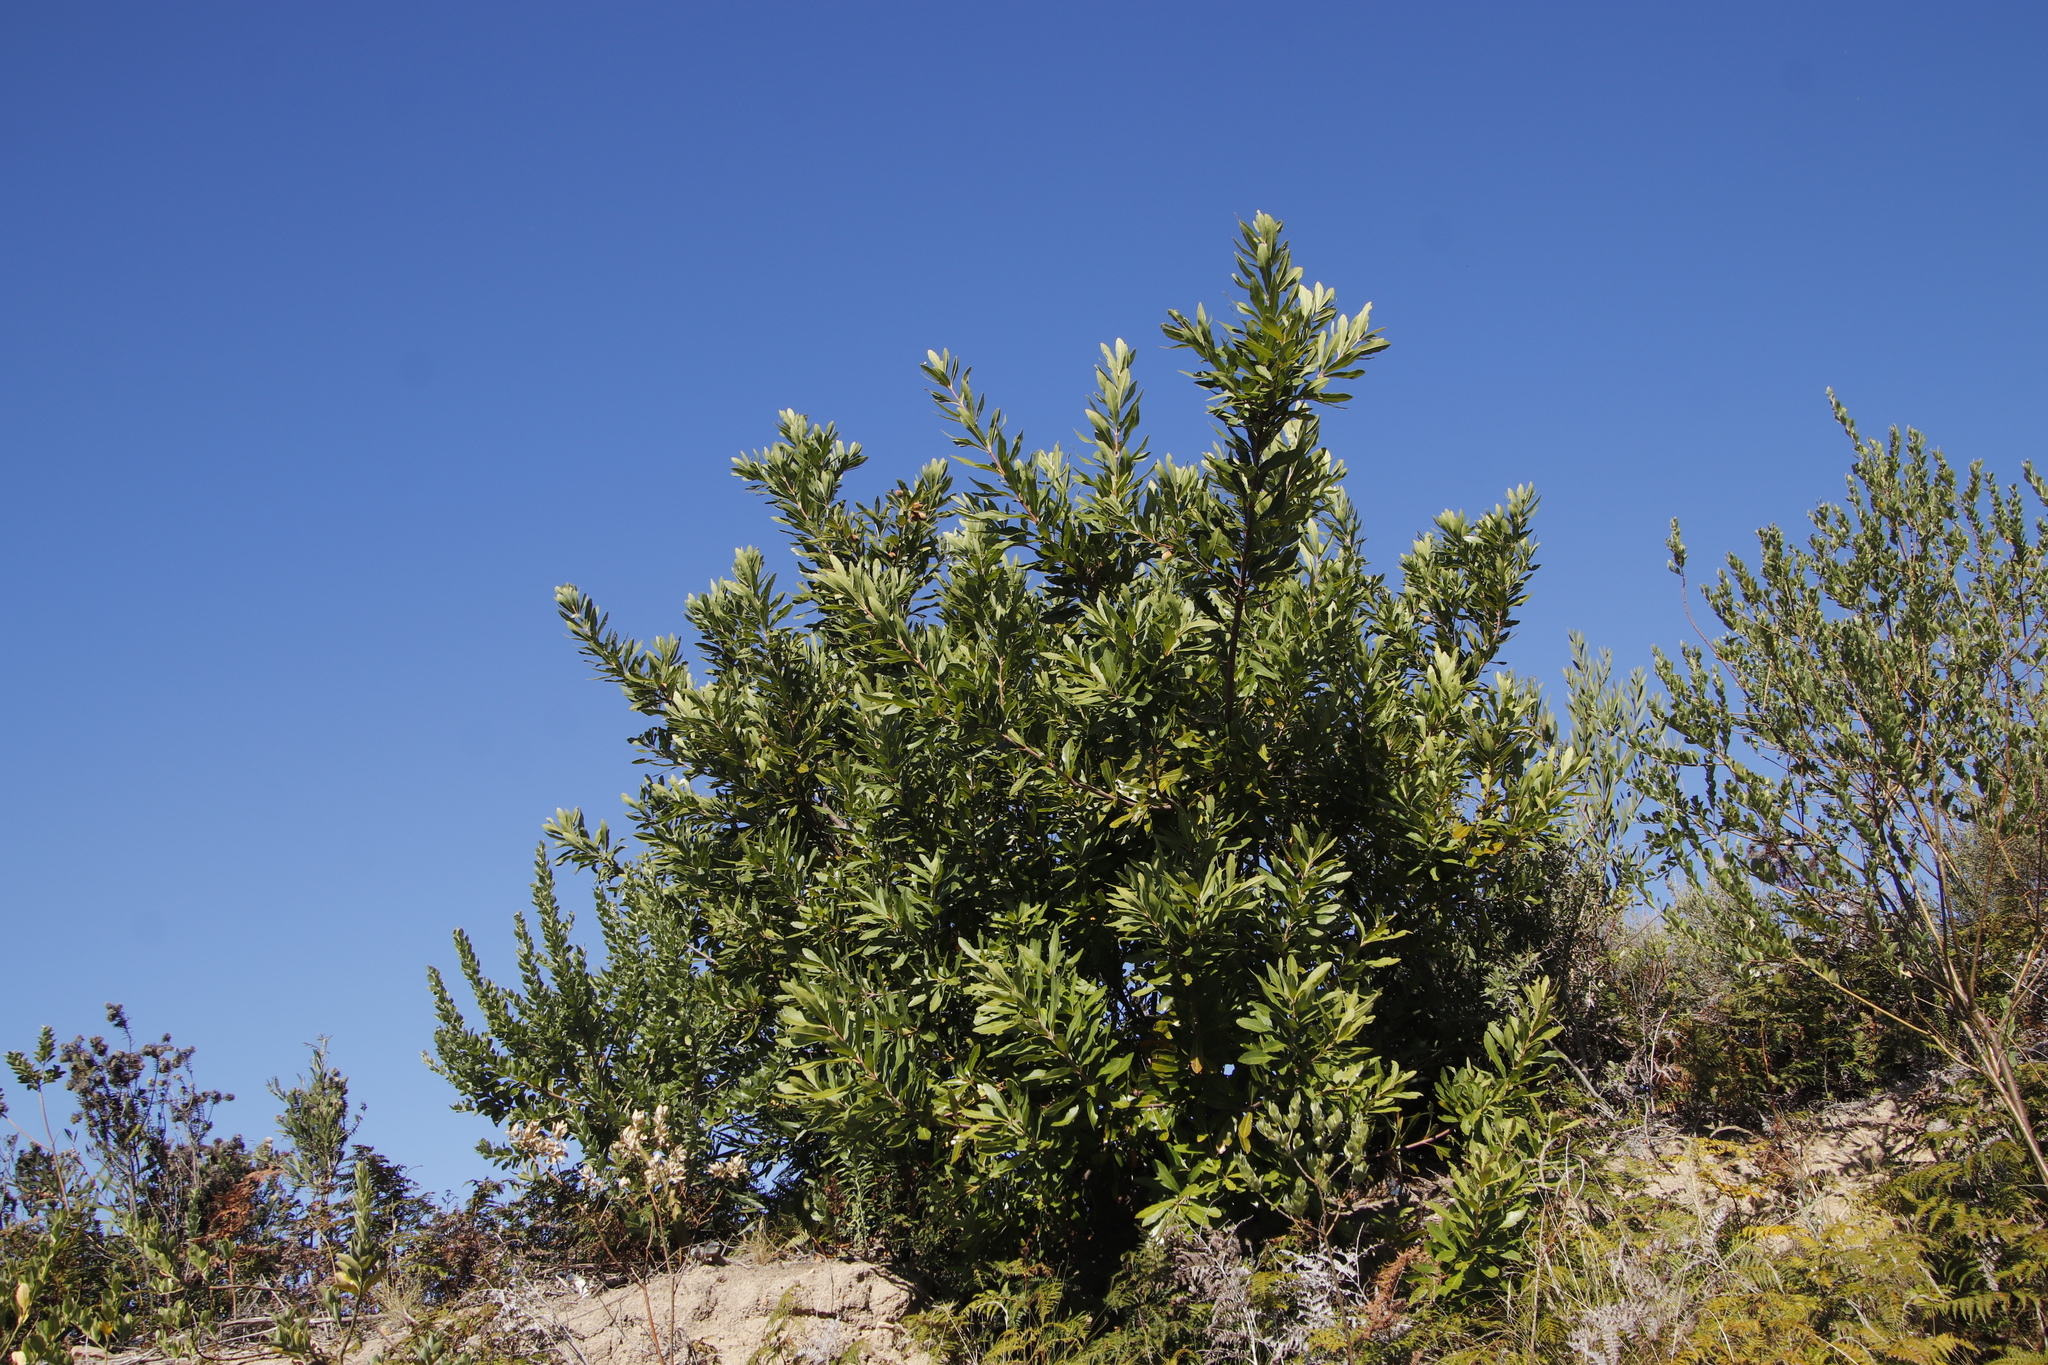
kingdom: Plantae
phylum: Tracheophyta
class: Magnoliopsida
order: Proteales
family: Proteaceae
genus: Brabejum
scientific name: Brabejum stellatifolium
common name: Wild almond
